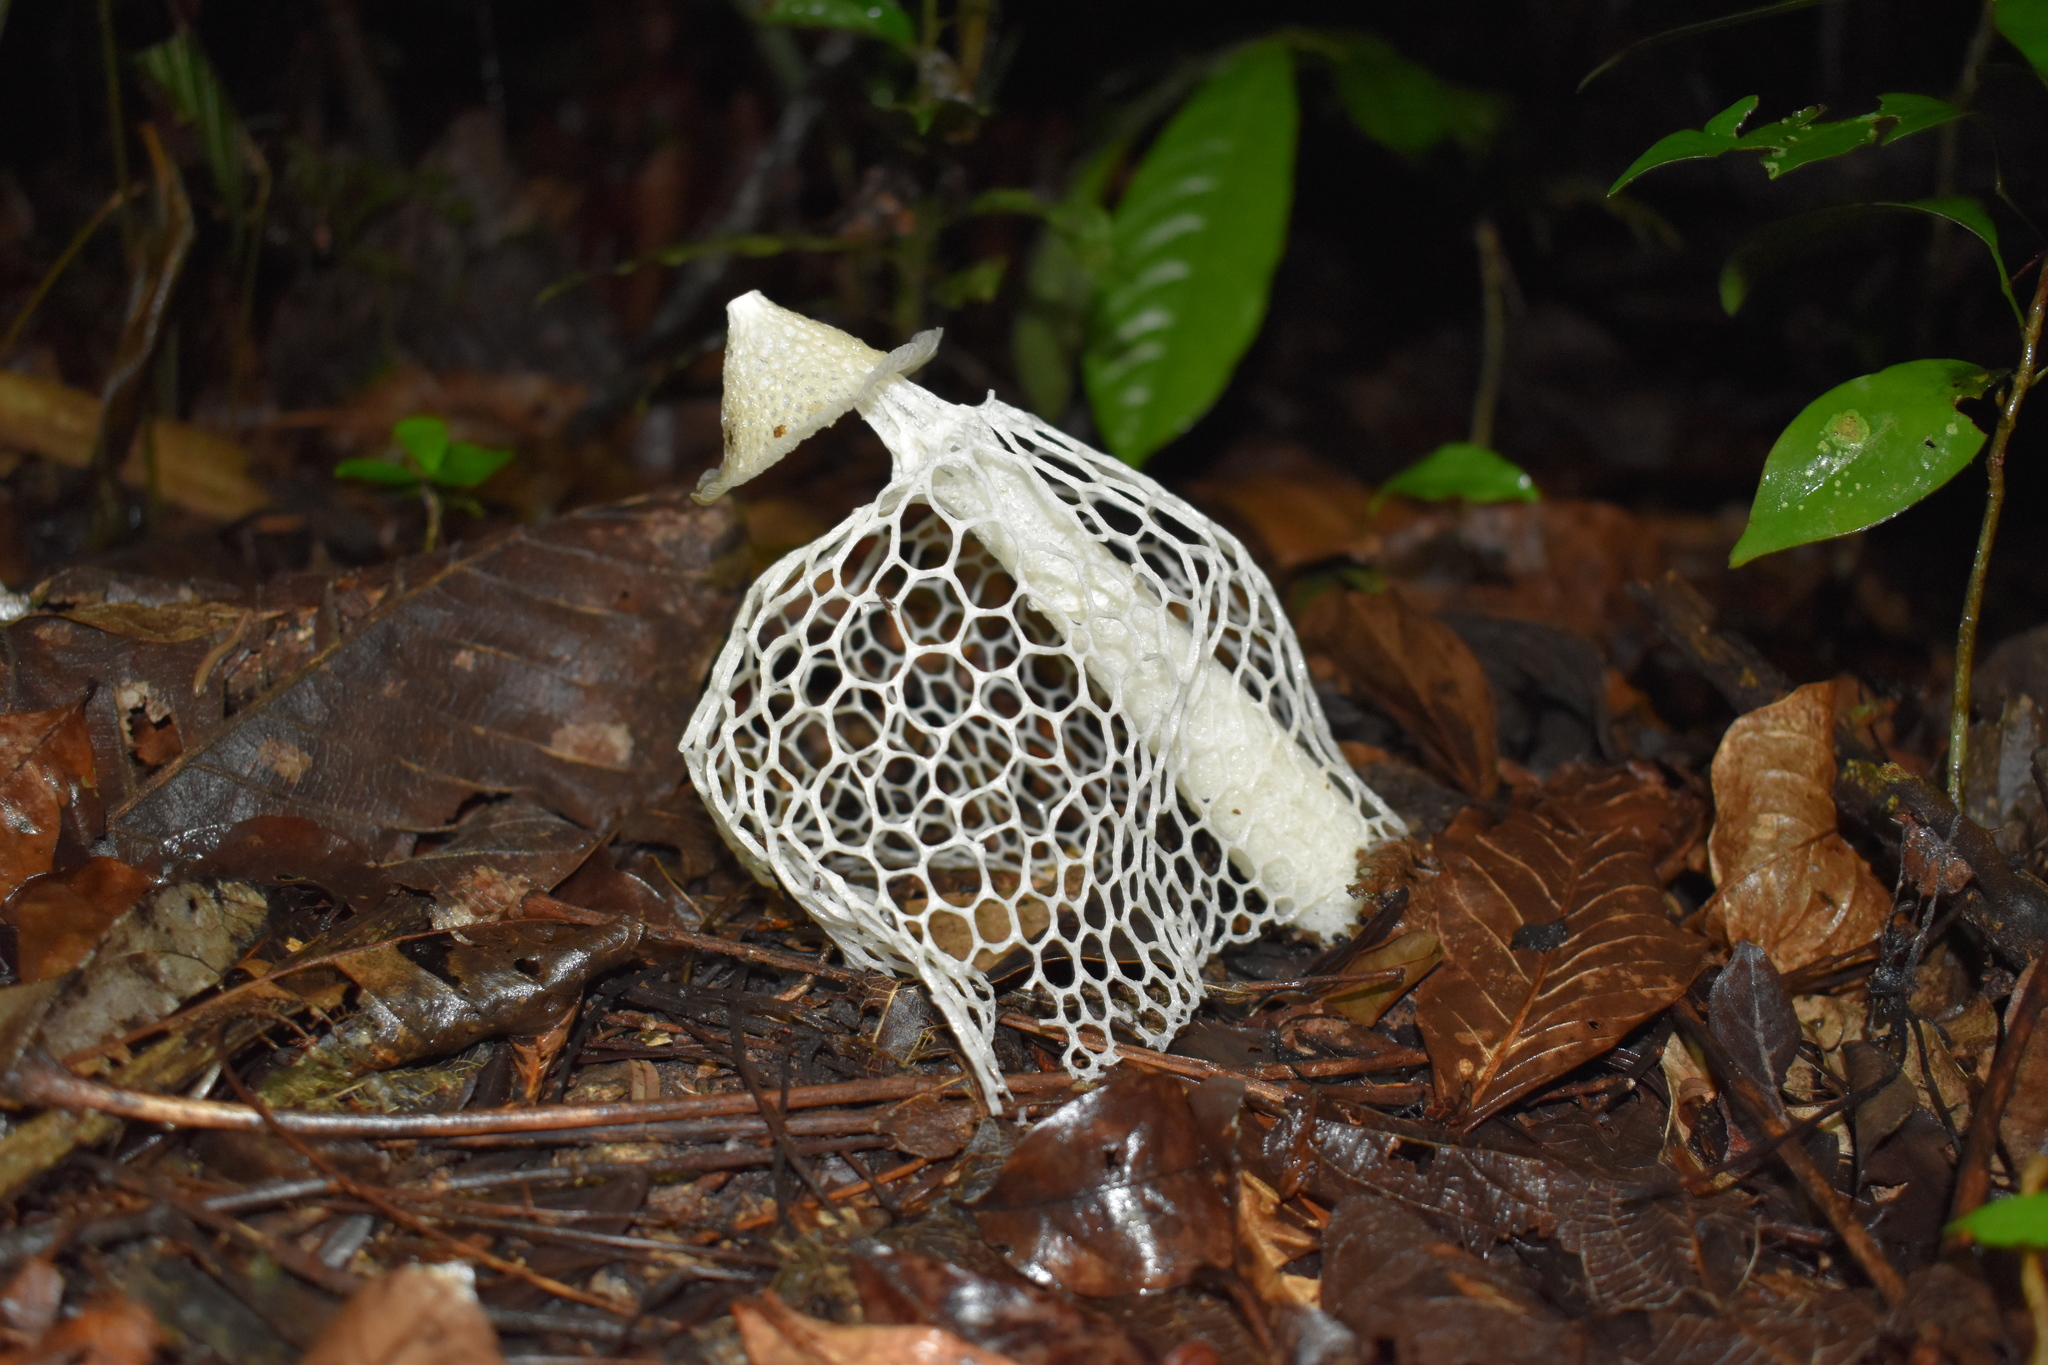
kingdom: Fungi
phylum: Basidiomycota
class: Agaricomycetes
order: Phallales
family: Phallaceae
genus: Phallus
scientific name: Phallus indusiatus
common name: Bridal veil stinkhorn
